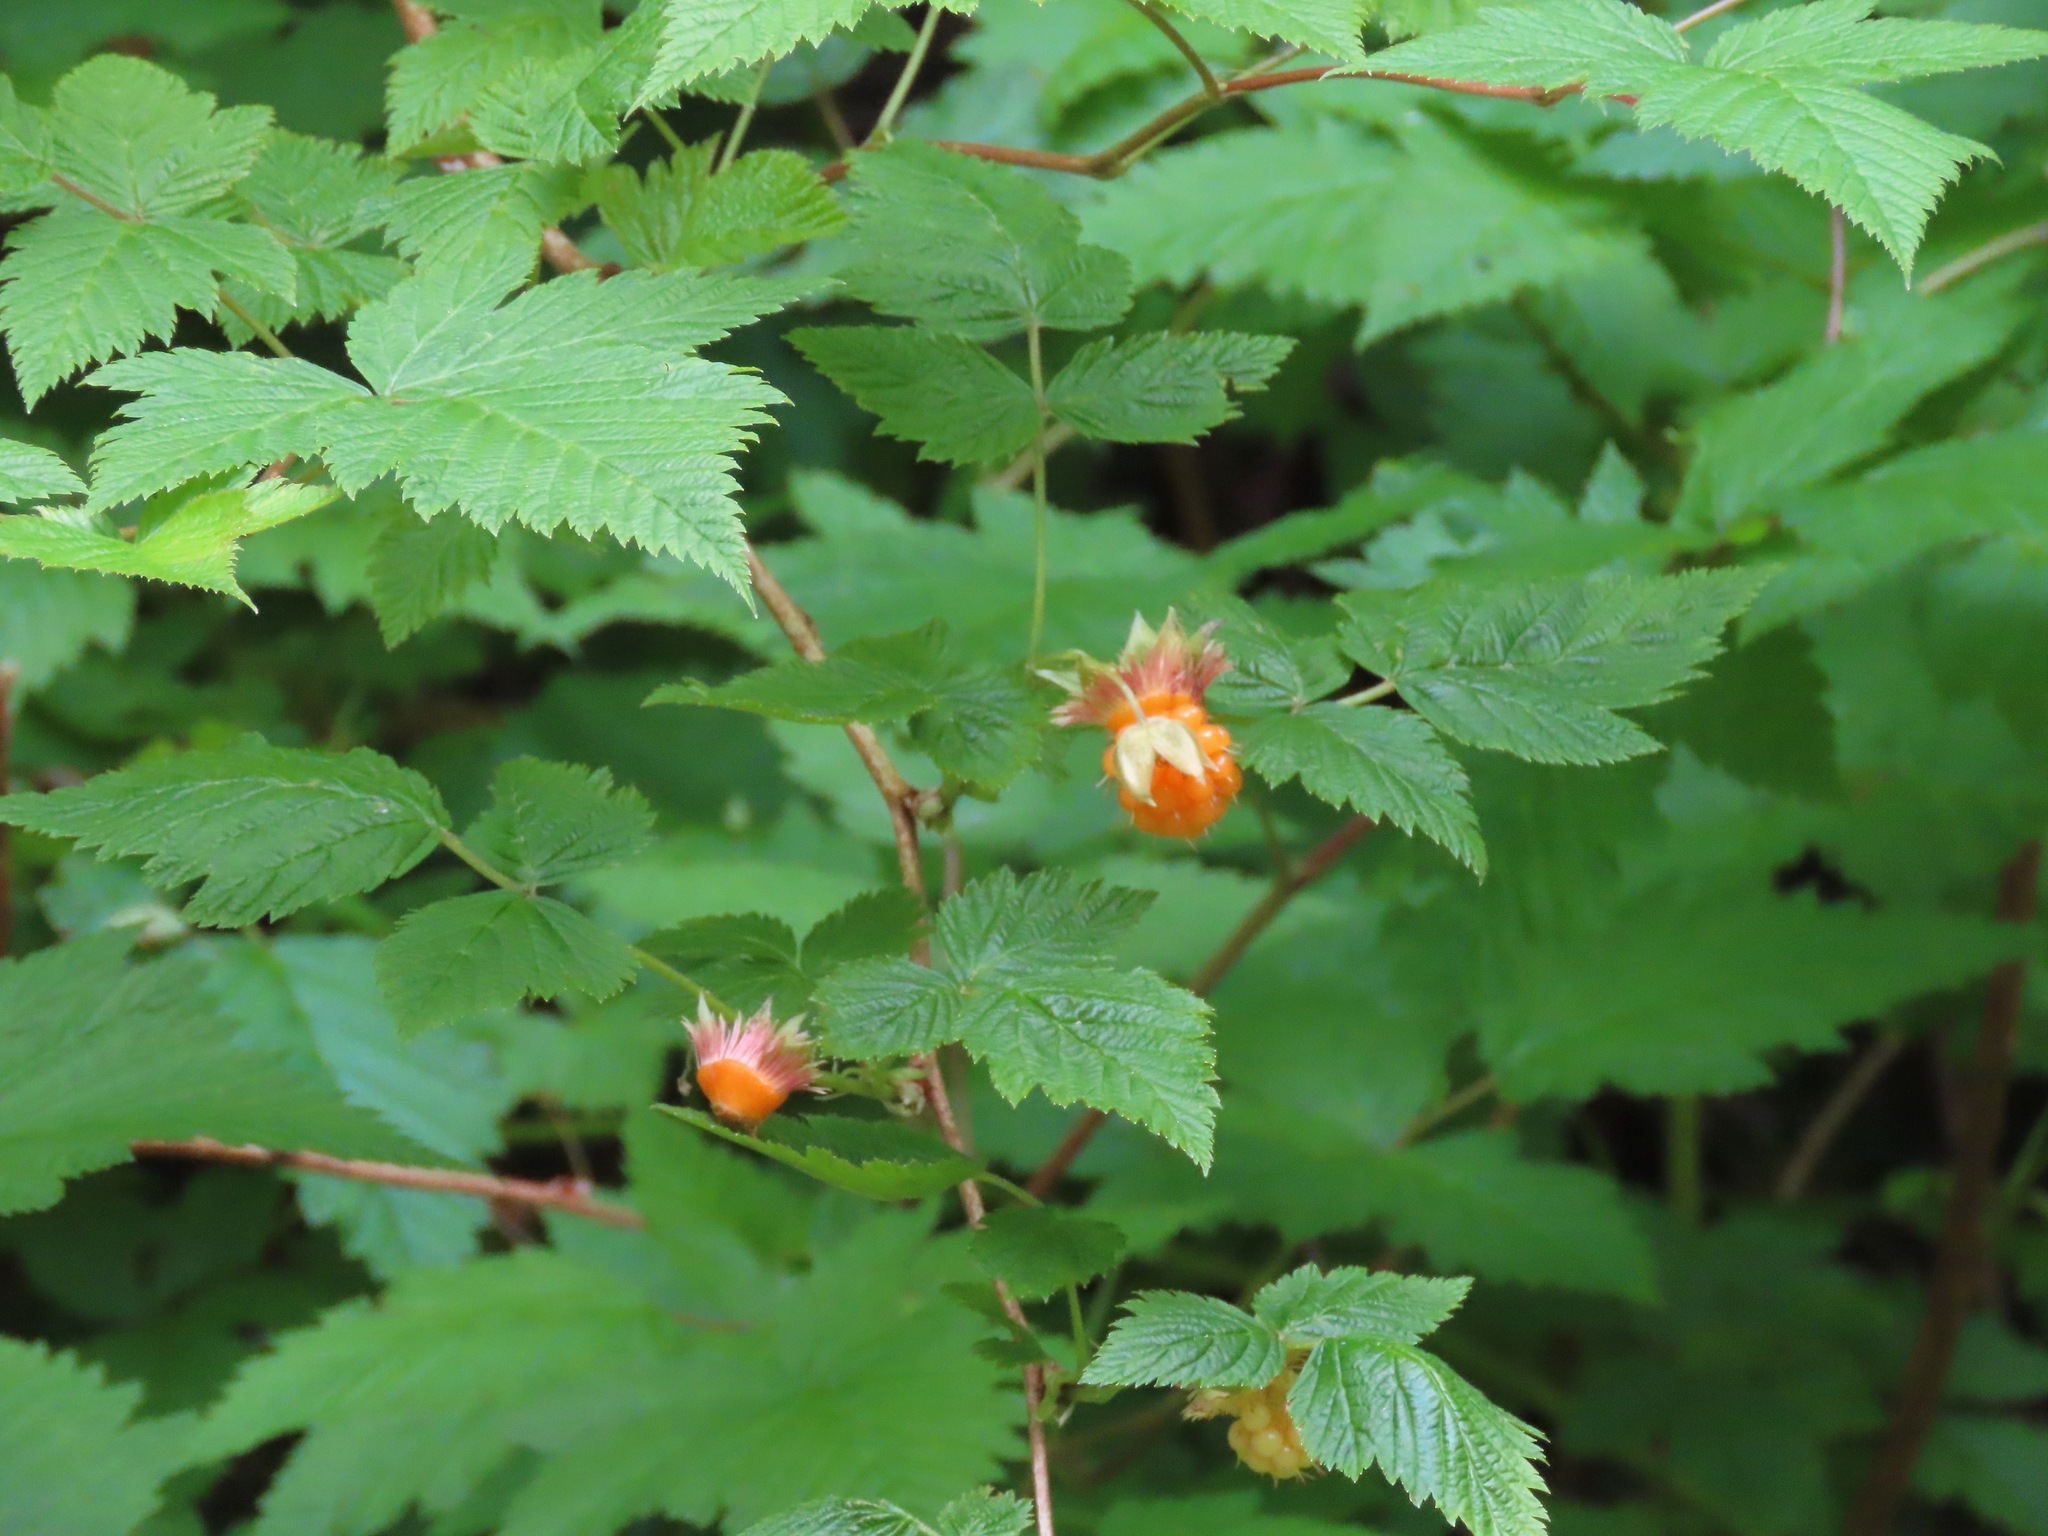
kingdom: Plantae
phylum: Tracheophyta
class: Magnoliopsida
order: Rosales
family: Rosaceae
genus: Rubus
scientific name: Rubus spectabilis
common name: Salmonberry
